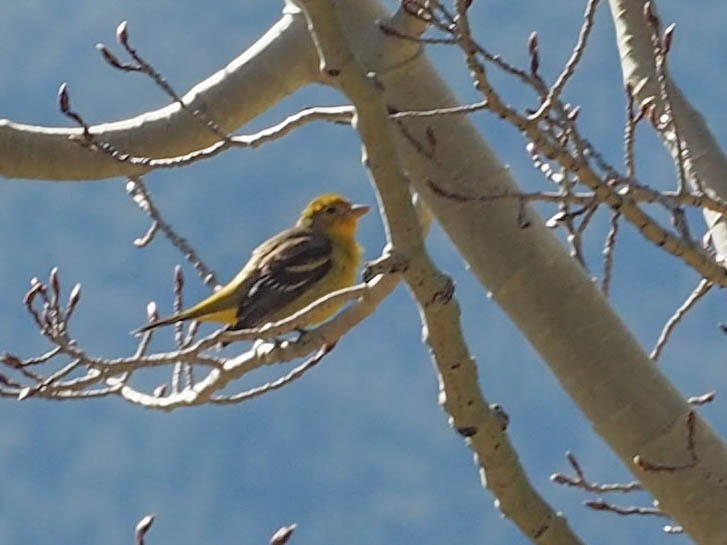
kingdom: Animalia
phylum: Chordata
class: Aves
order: Passeriformes
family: Cardinalidae
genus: Piranga
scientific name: Piranga ludoviciana
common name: Western tanager
